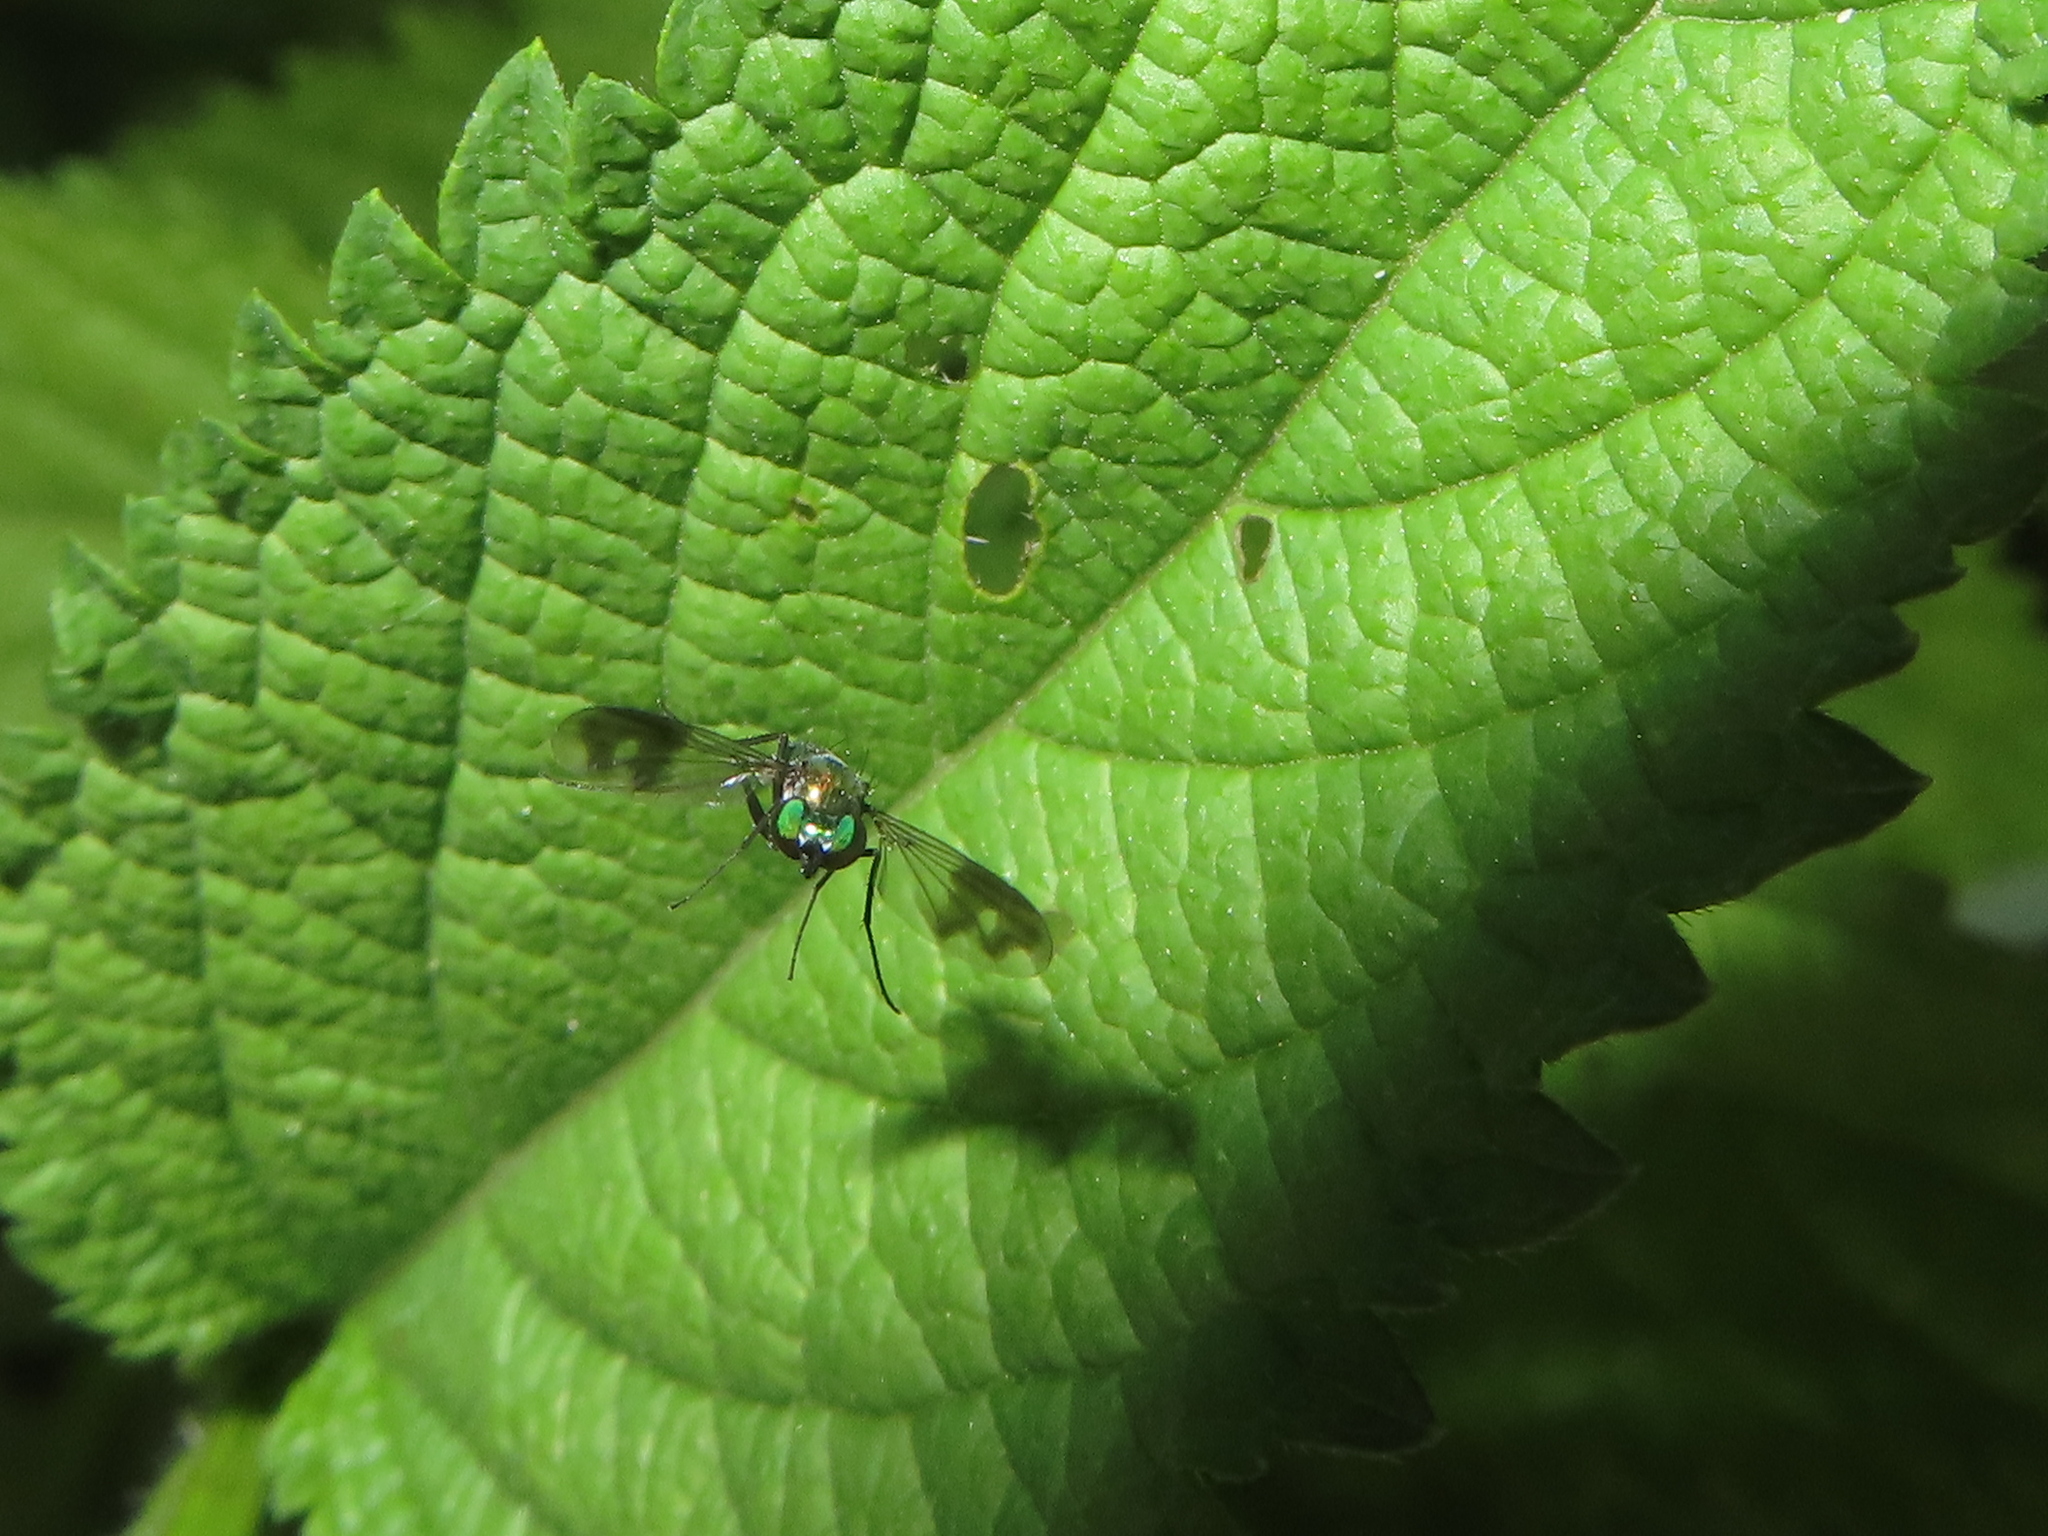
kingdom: Animalia
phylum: Arthropoda
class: Insecta
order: Diptera
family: Dolichopodidae
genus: Condylostylus
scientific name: Condylostylus patibulatus
